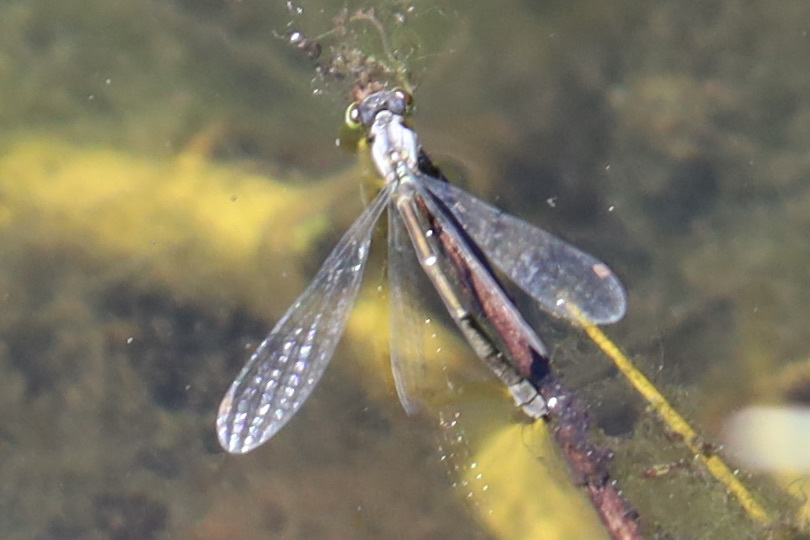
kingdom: Animalia
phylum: Arthropoda
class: Insecta
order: Odonata
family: Coenagrionidae
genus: Ischnura
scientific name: Ischnura cervula
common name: Pacific forktail
